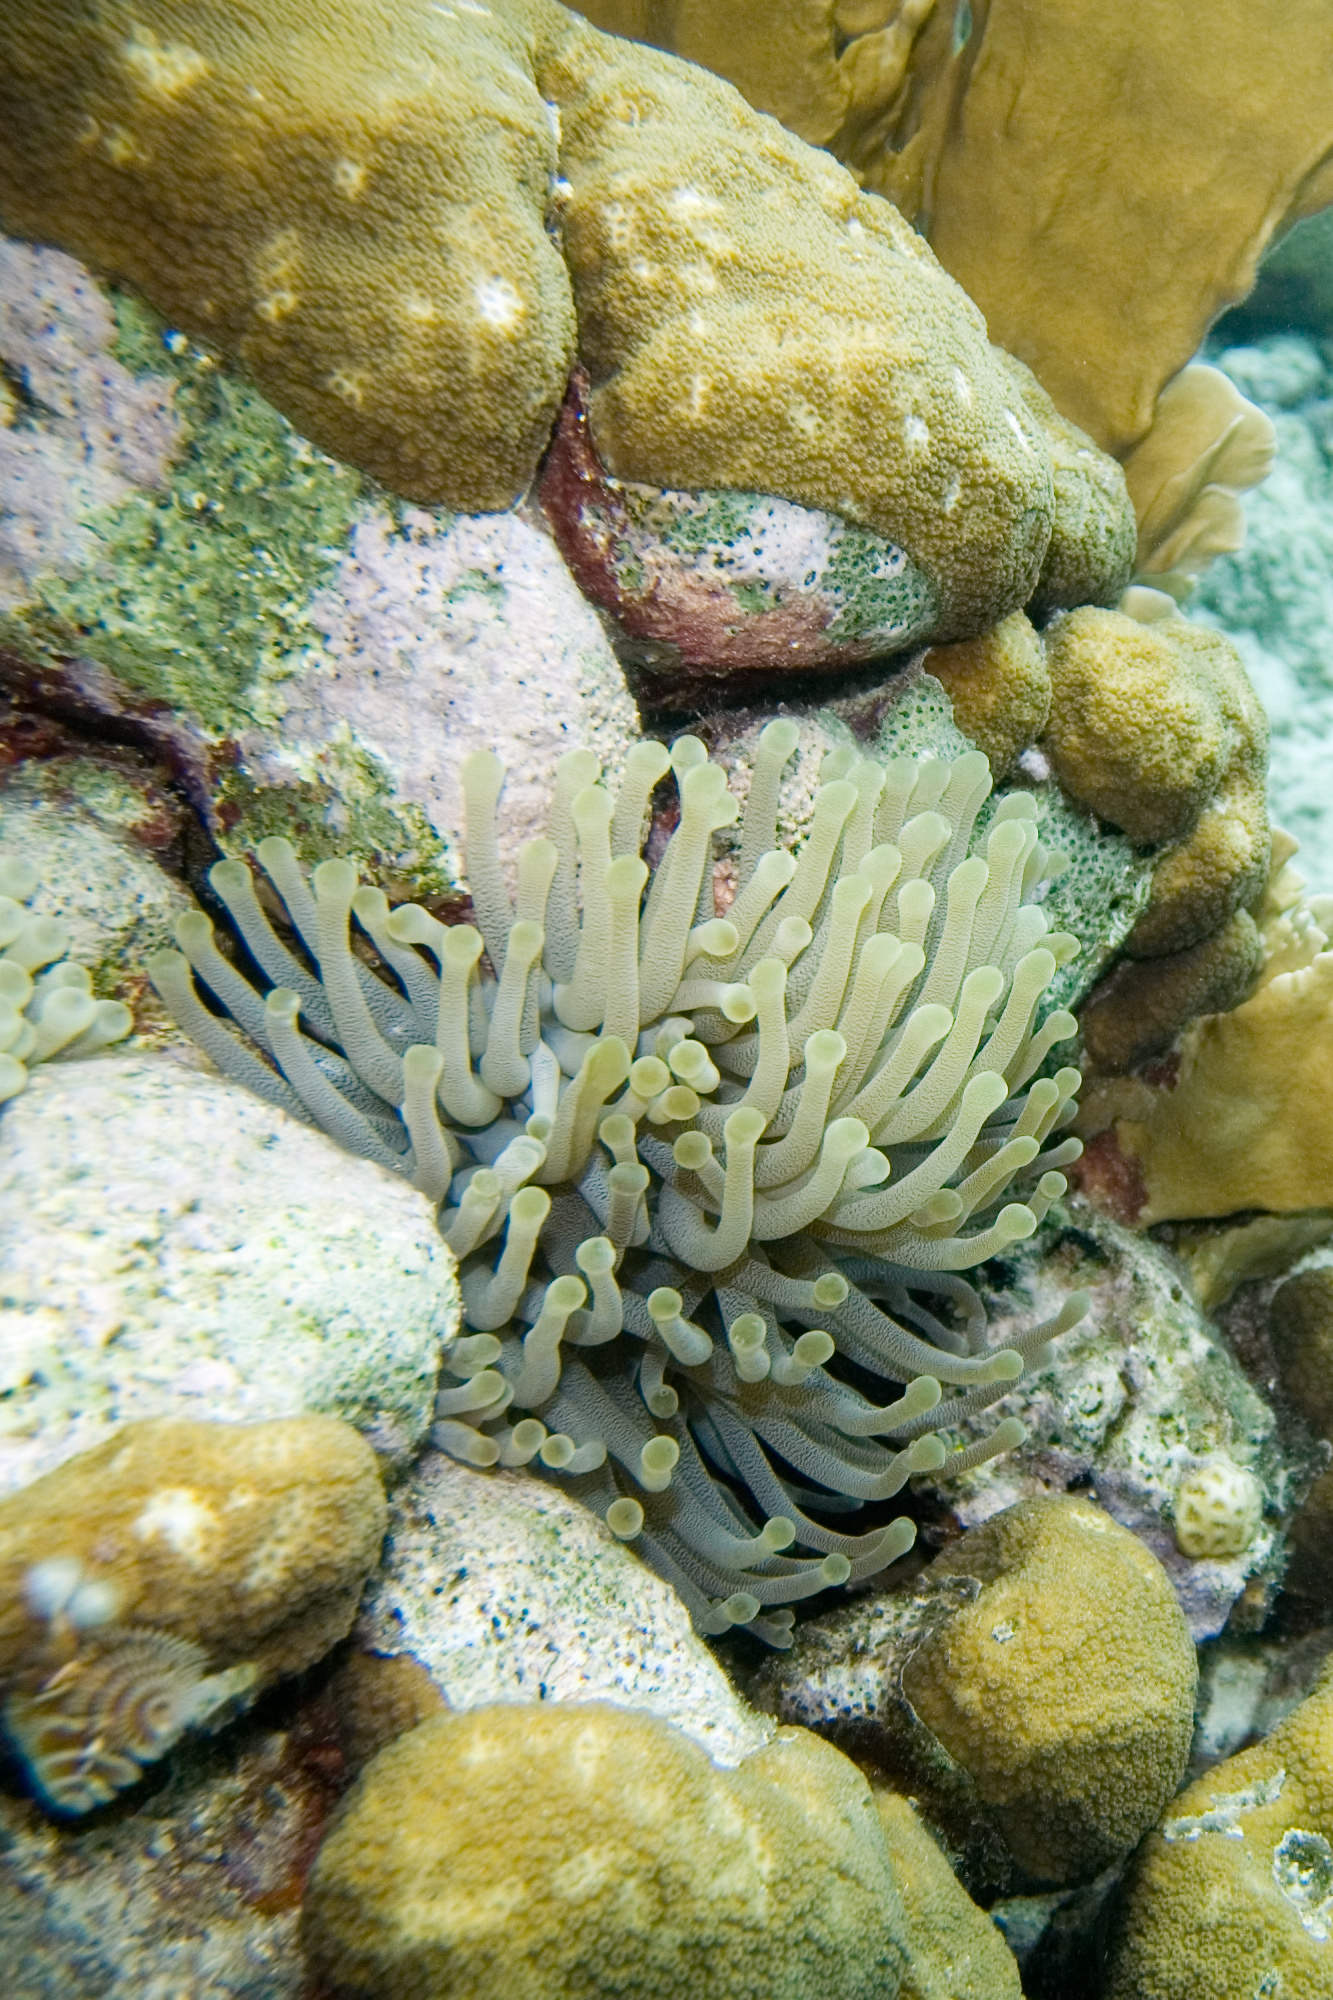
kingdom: Animalia
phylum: Cnidaria
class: Anthozoa
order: Actiniaria
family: Actiniidae
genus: Condylactis
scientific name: Condylactis gigantea
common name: Giant caribbean anemone
